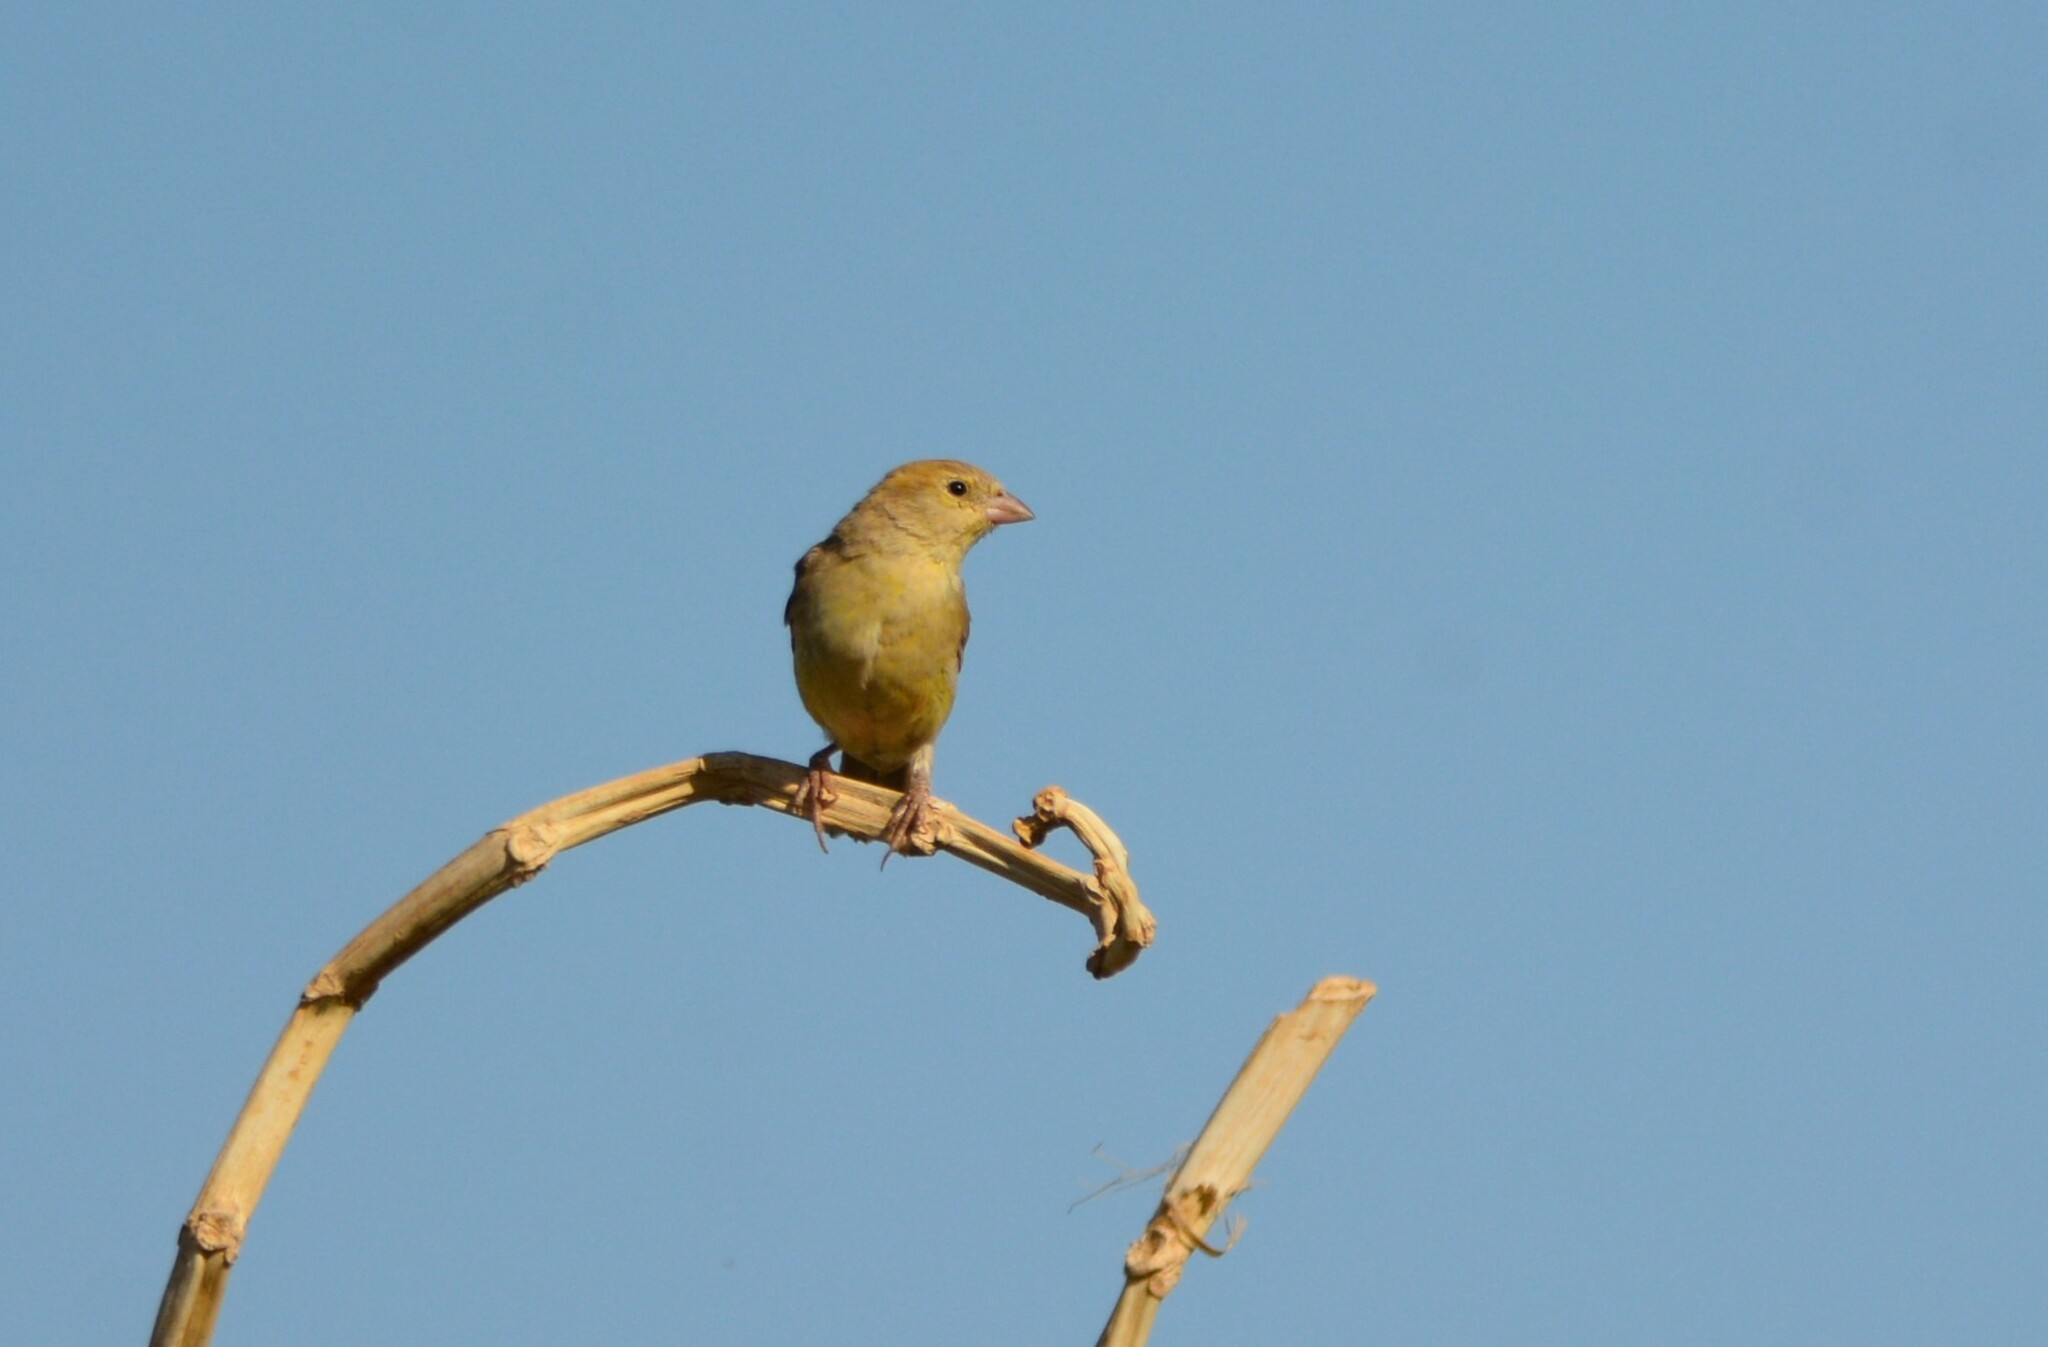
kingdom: Animalia
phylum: Chordata
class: Aves
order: Passeriformes
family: Passeridae
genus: Passer
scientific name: Passer luteus
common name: Sudan golden sparrow
